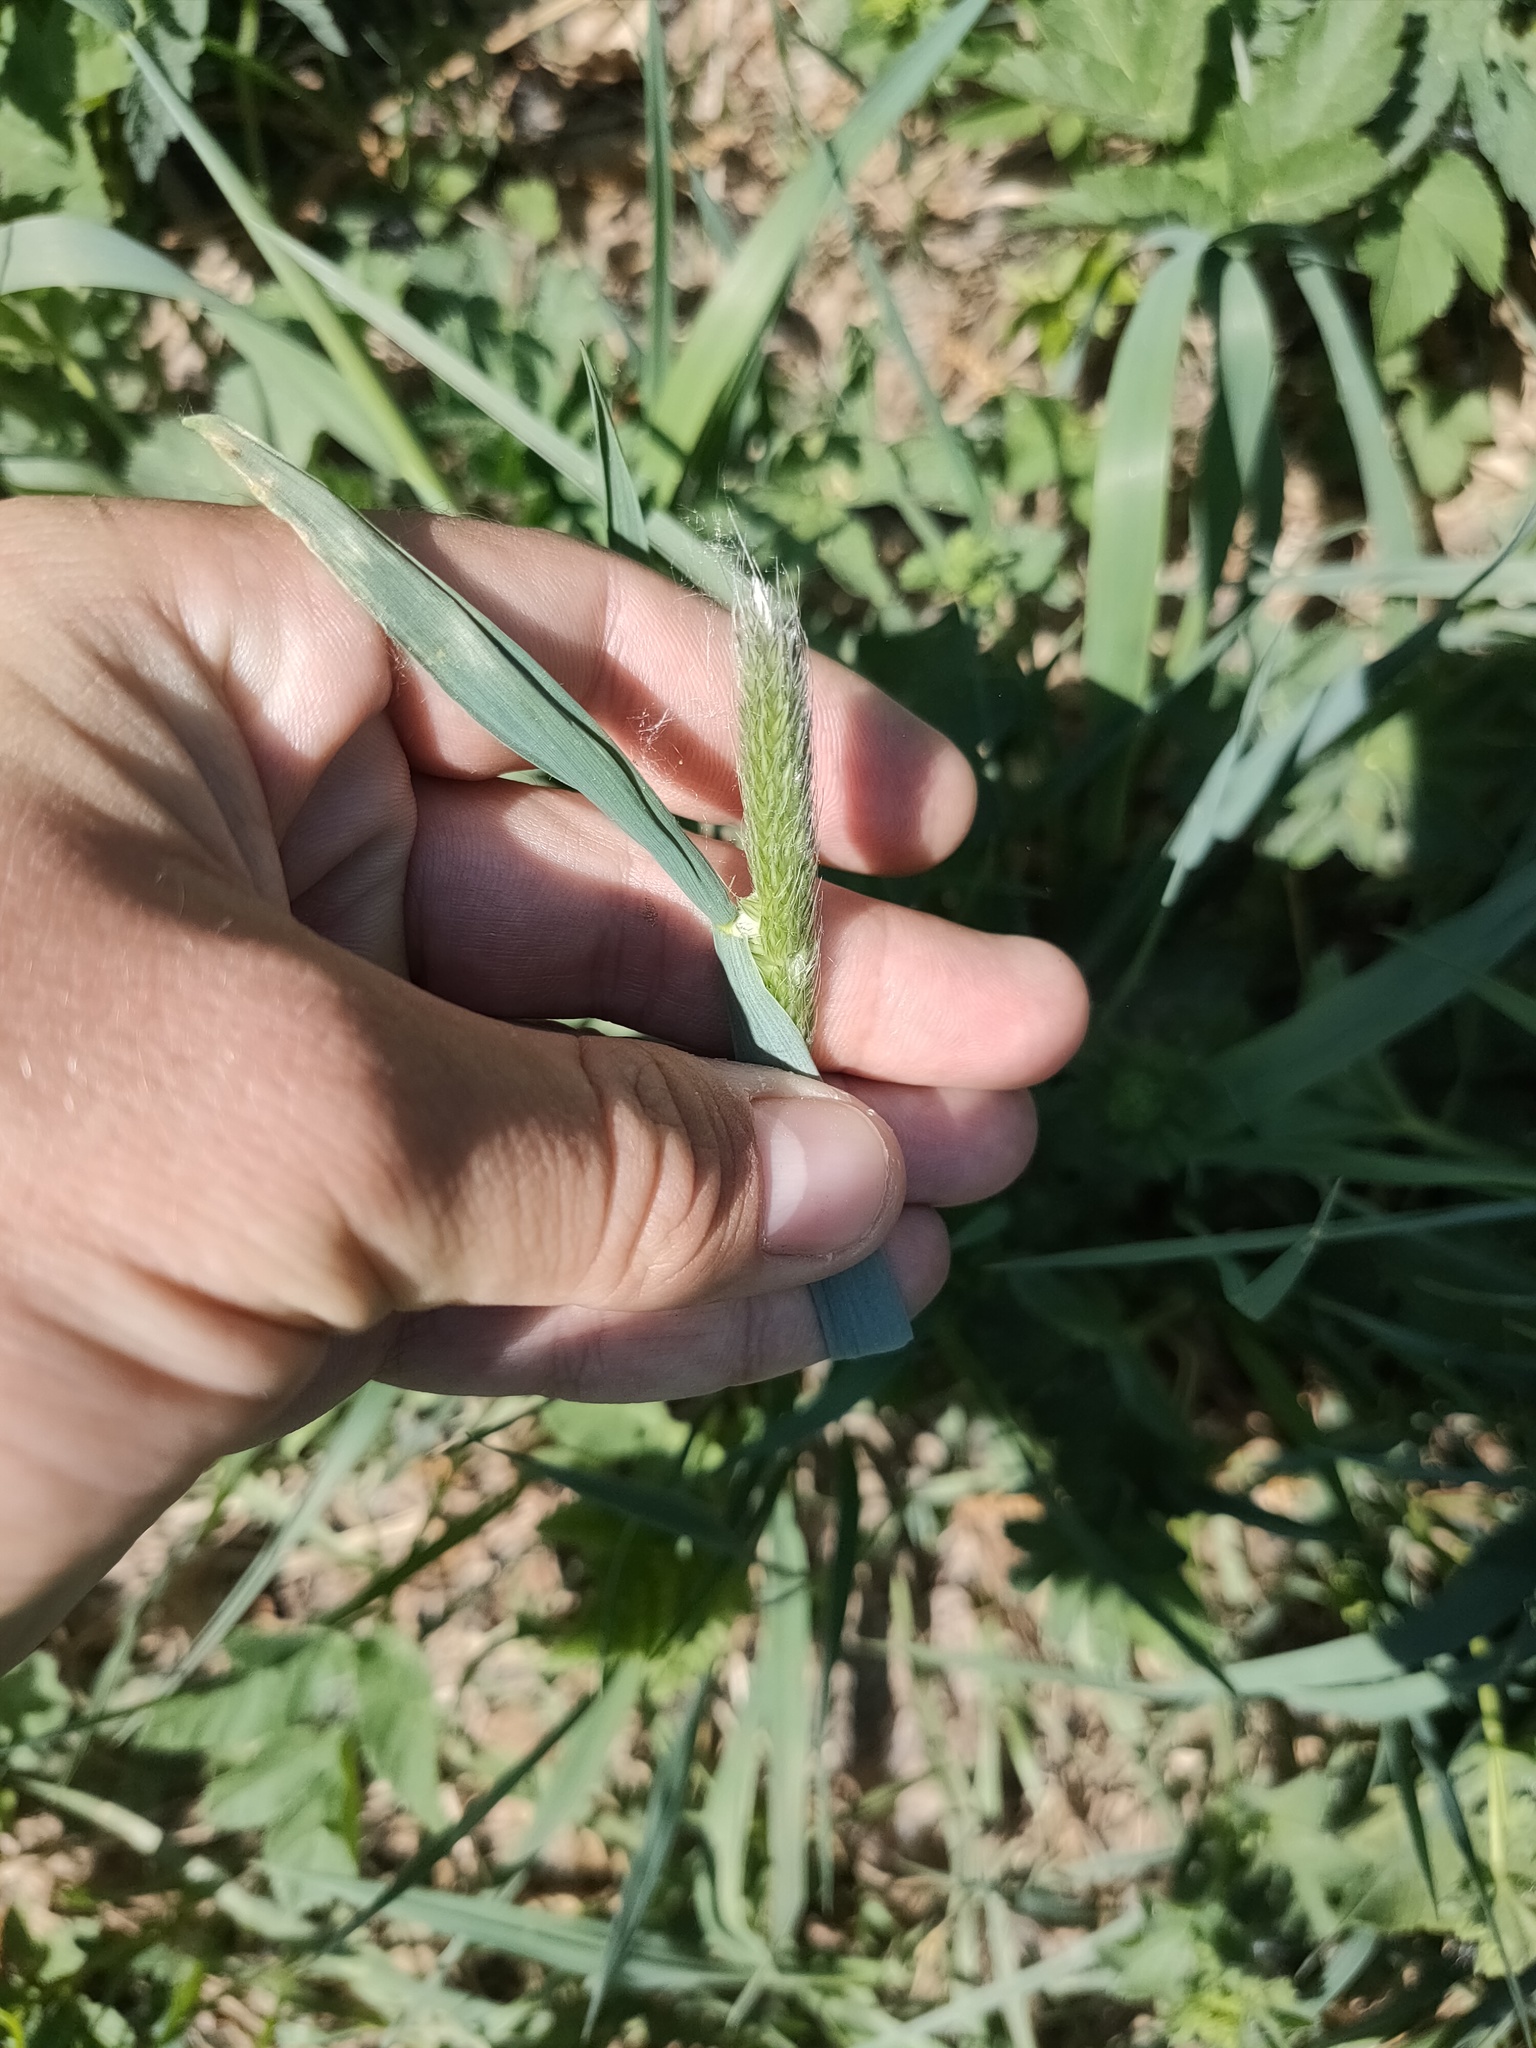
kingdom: Plantae
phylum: Tracheophyta
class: Liliopsida
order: Poales
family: Poaceae
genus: Alopecurus
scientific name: Alopecurus pratensis
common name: Meadow foxtail
